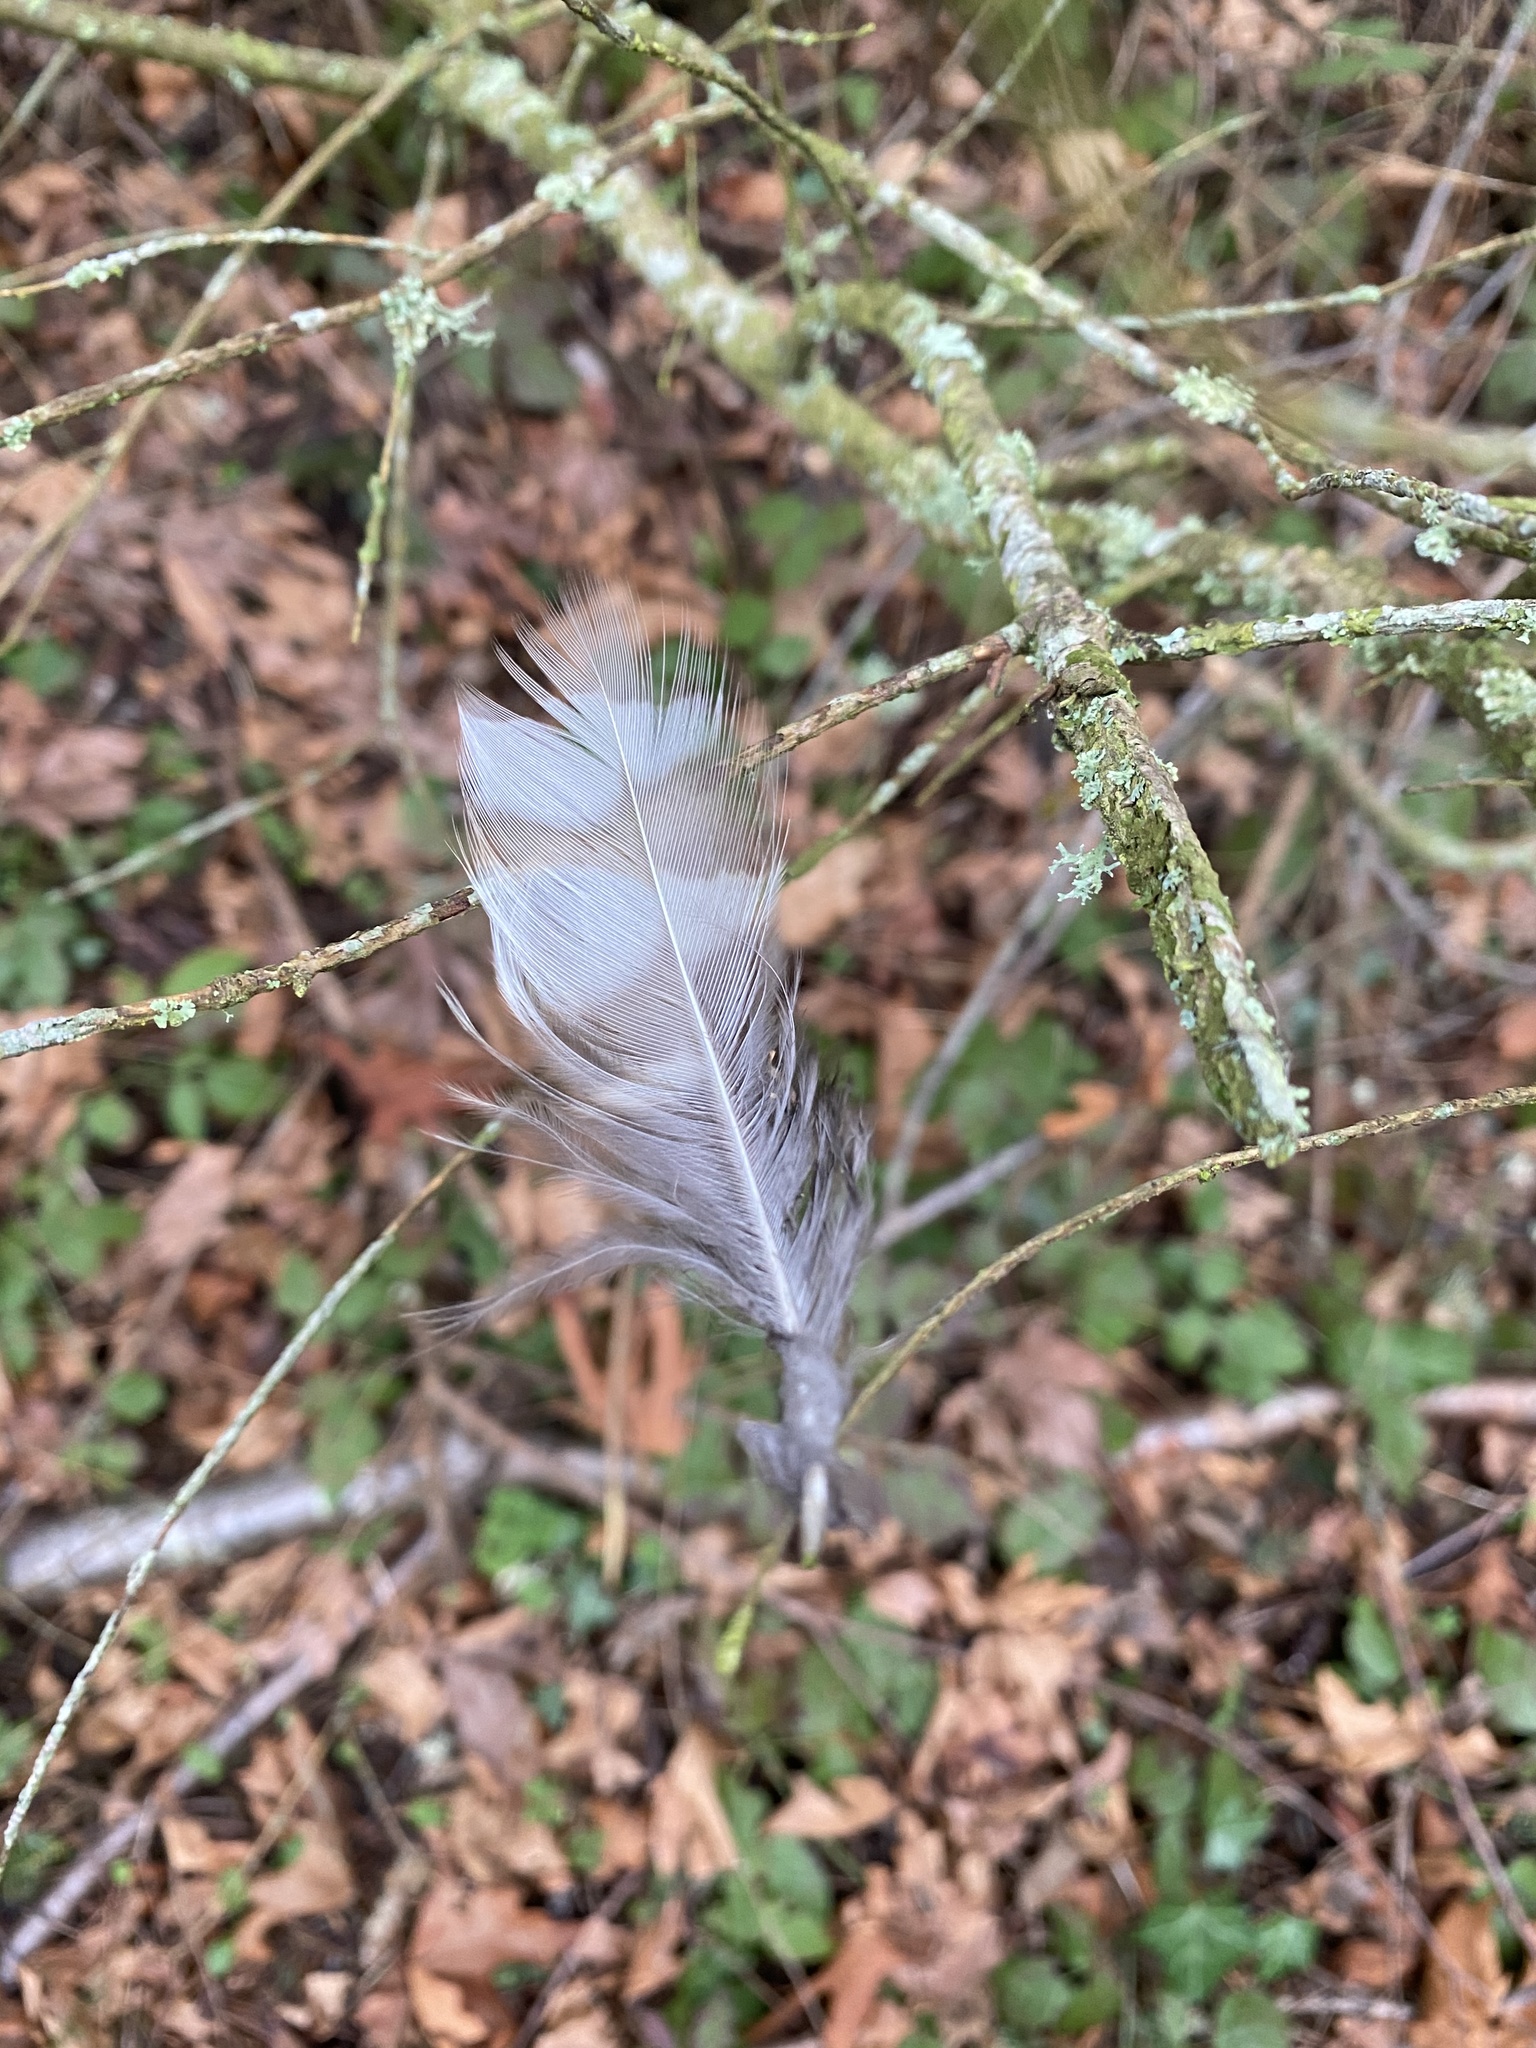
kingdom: Animalia
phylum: Chordata
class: Aves
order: Strigiformes
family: Strigidae
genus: Strix
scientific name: Strix varia
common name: Barred owl
